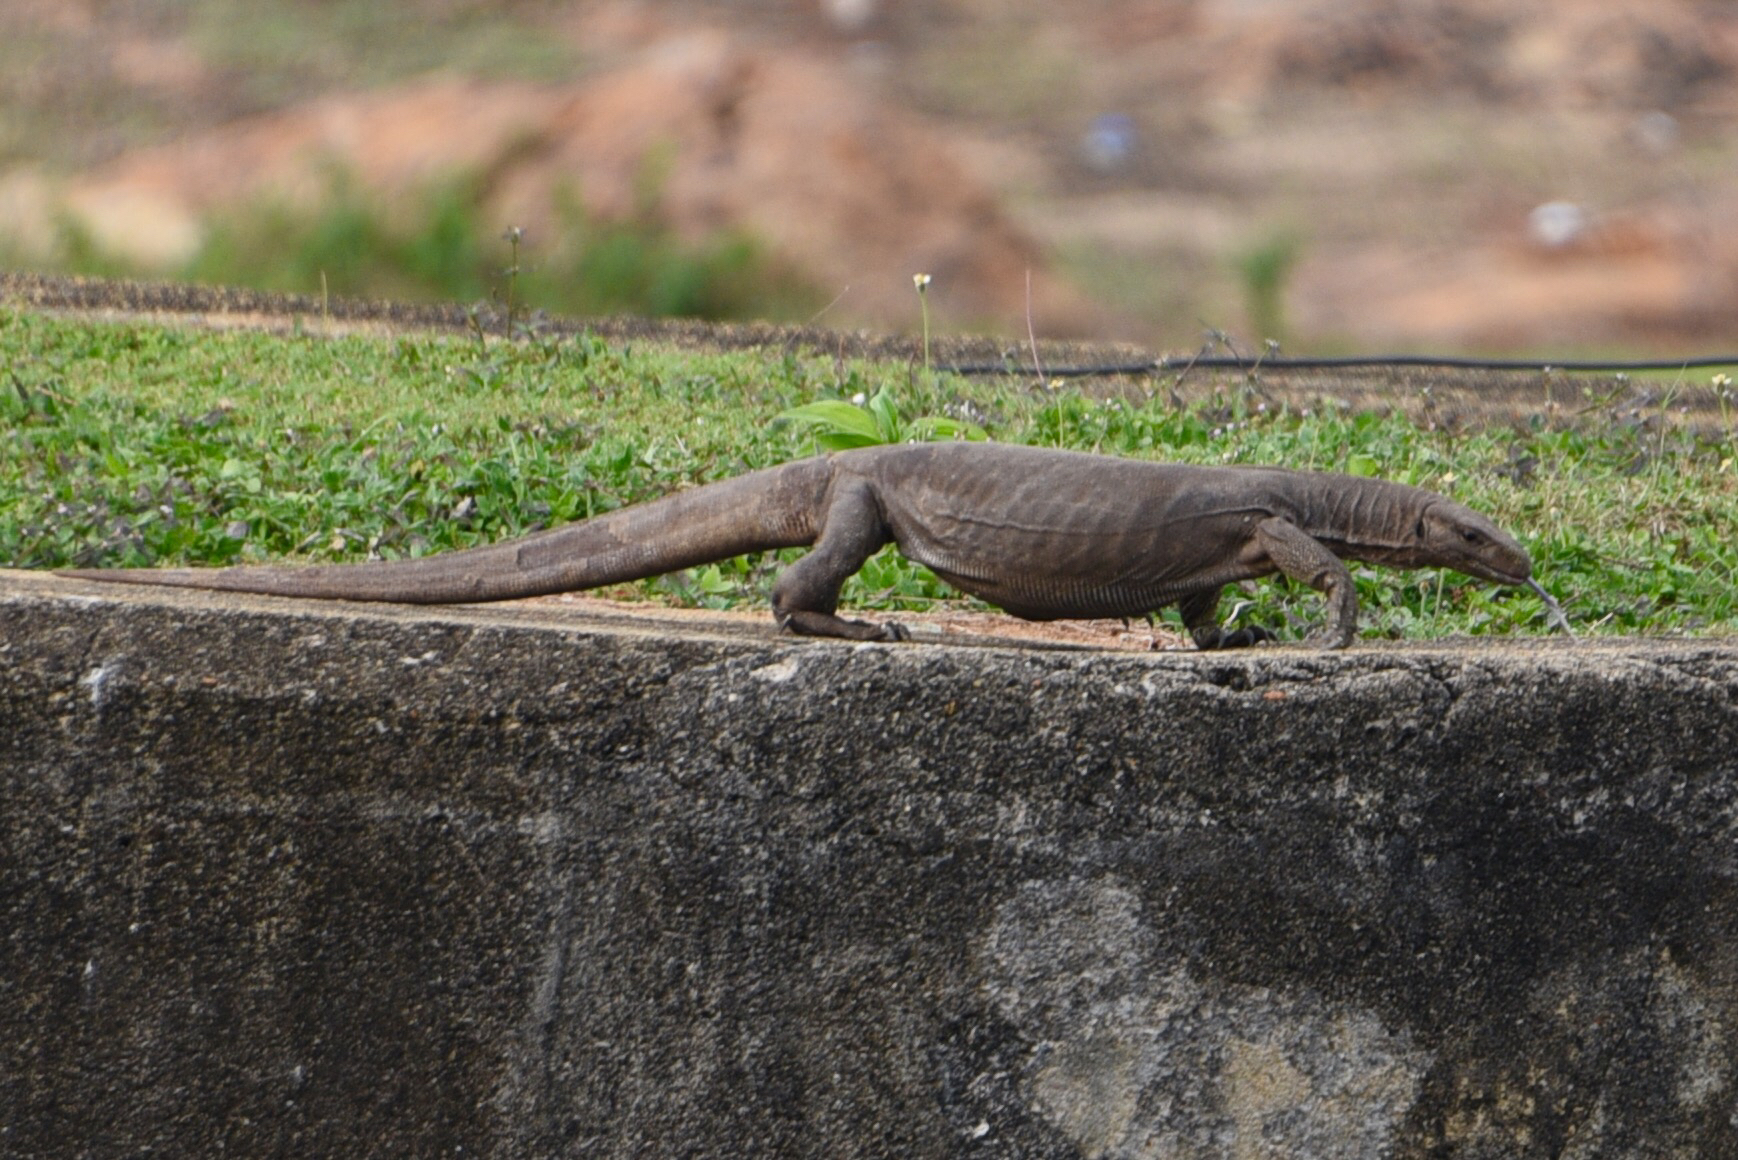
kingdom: Animalia
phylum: Chordata
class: Squamata
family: Varanidae
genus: Varanus
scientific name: Varanus bengalensis
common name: Bengal monitor
